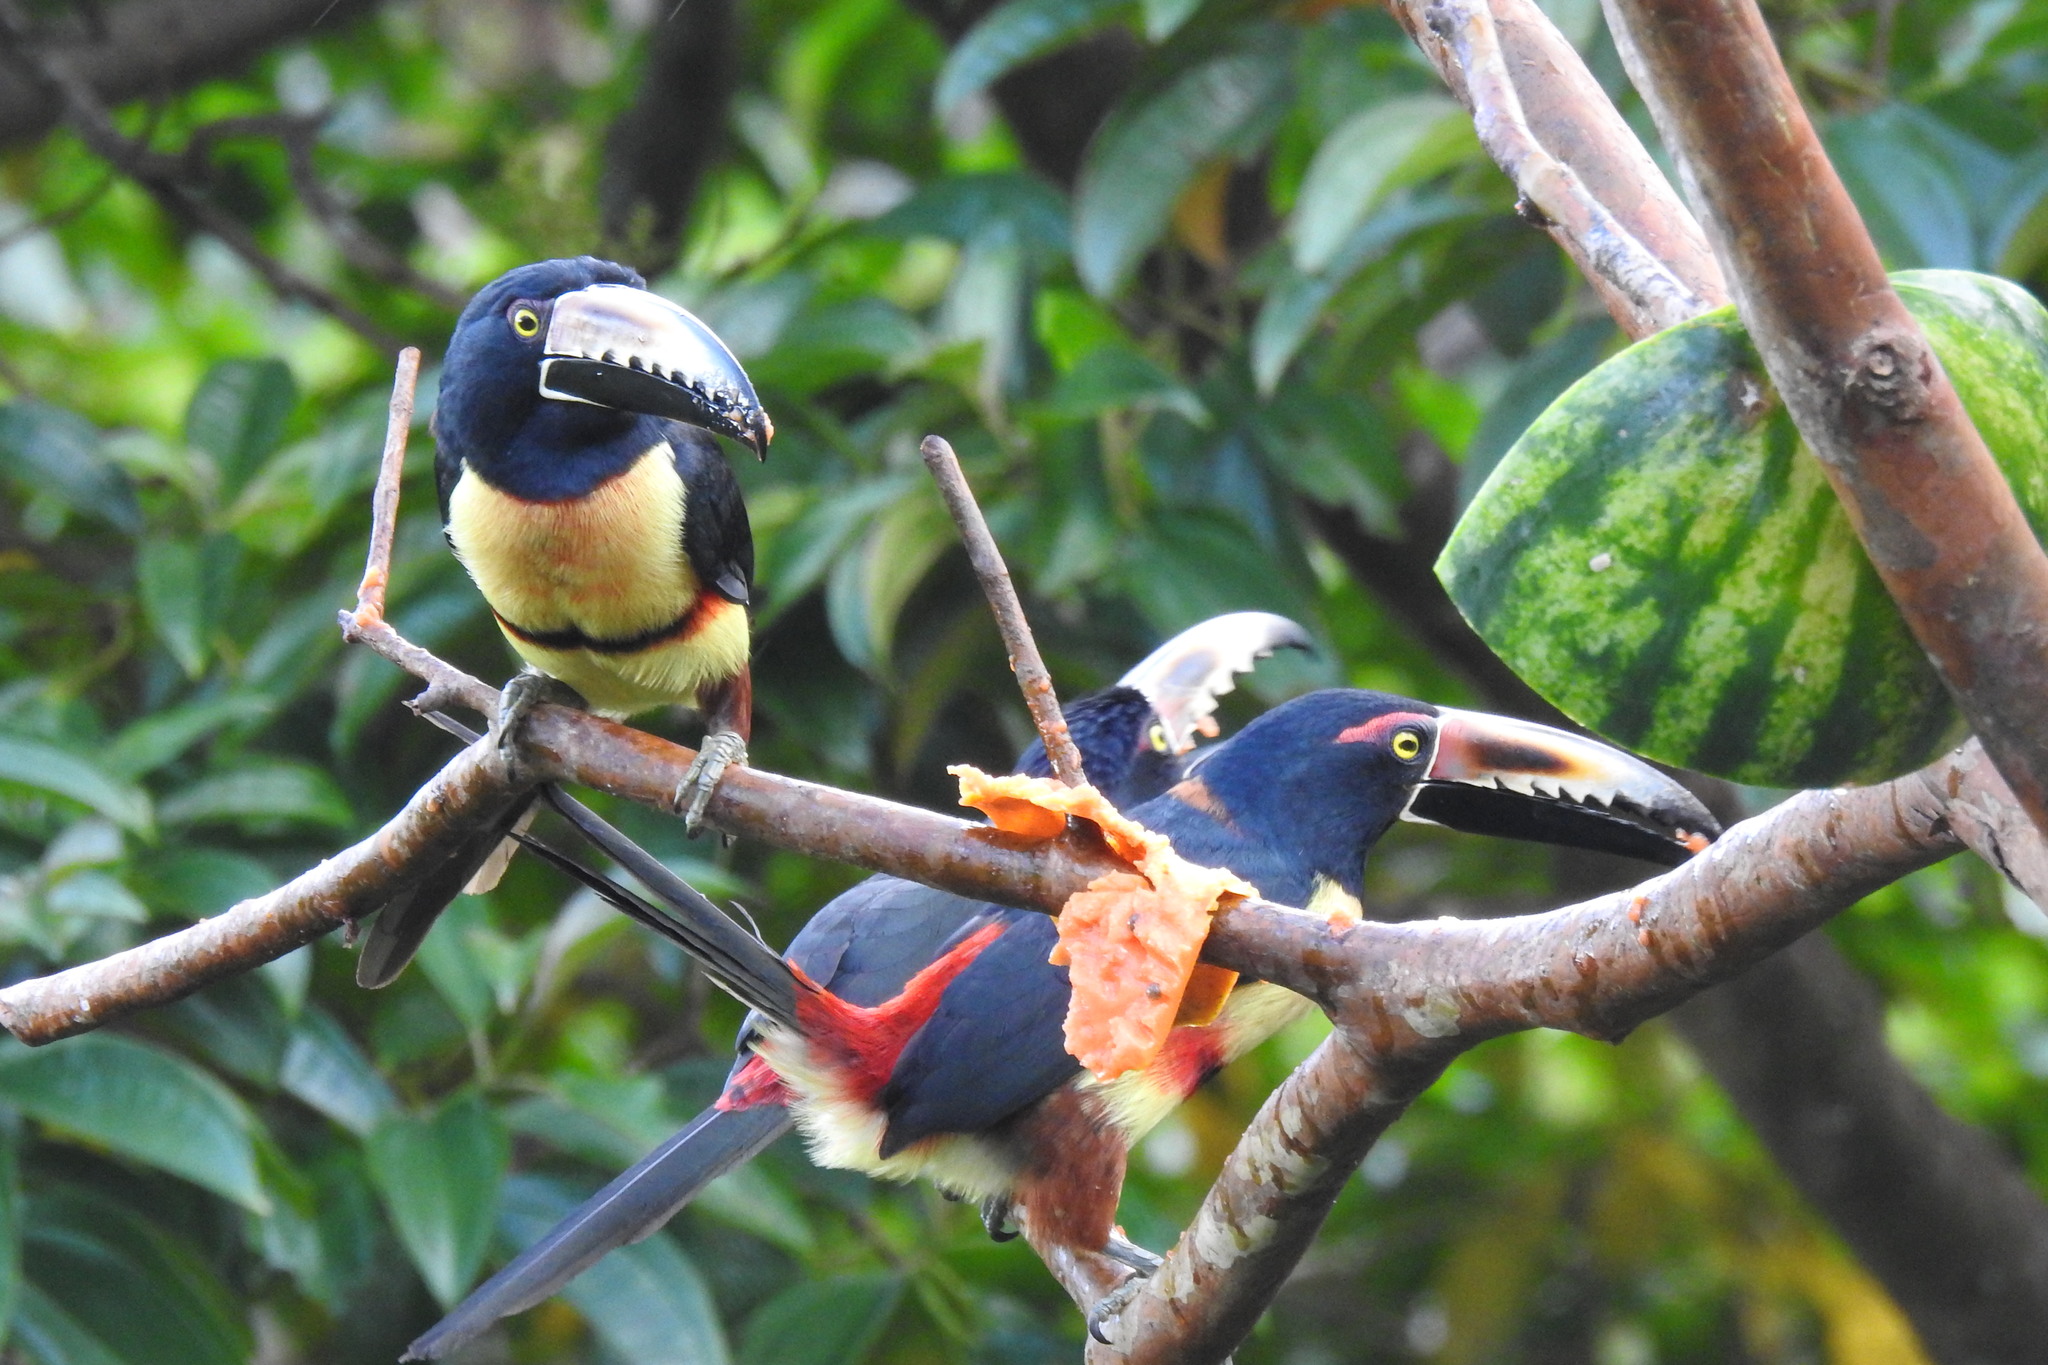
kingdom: Animalia
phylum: Chordata
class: Aves
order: Piciformes
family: Ramphastidae
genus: Pteroglossus
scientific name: Pteroglossus torquatus
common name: Collared aracari
